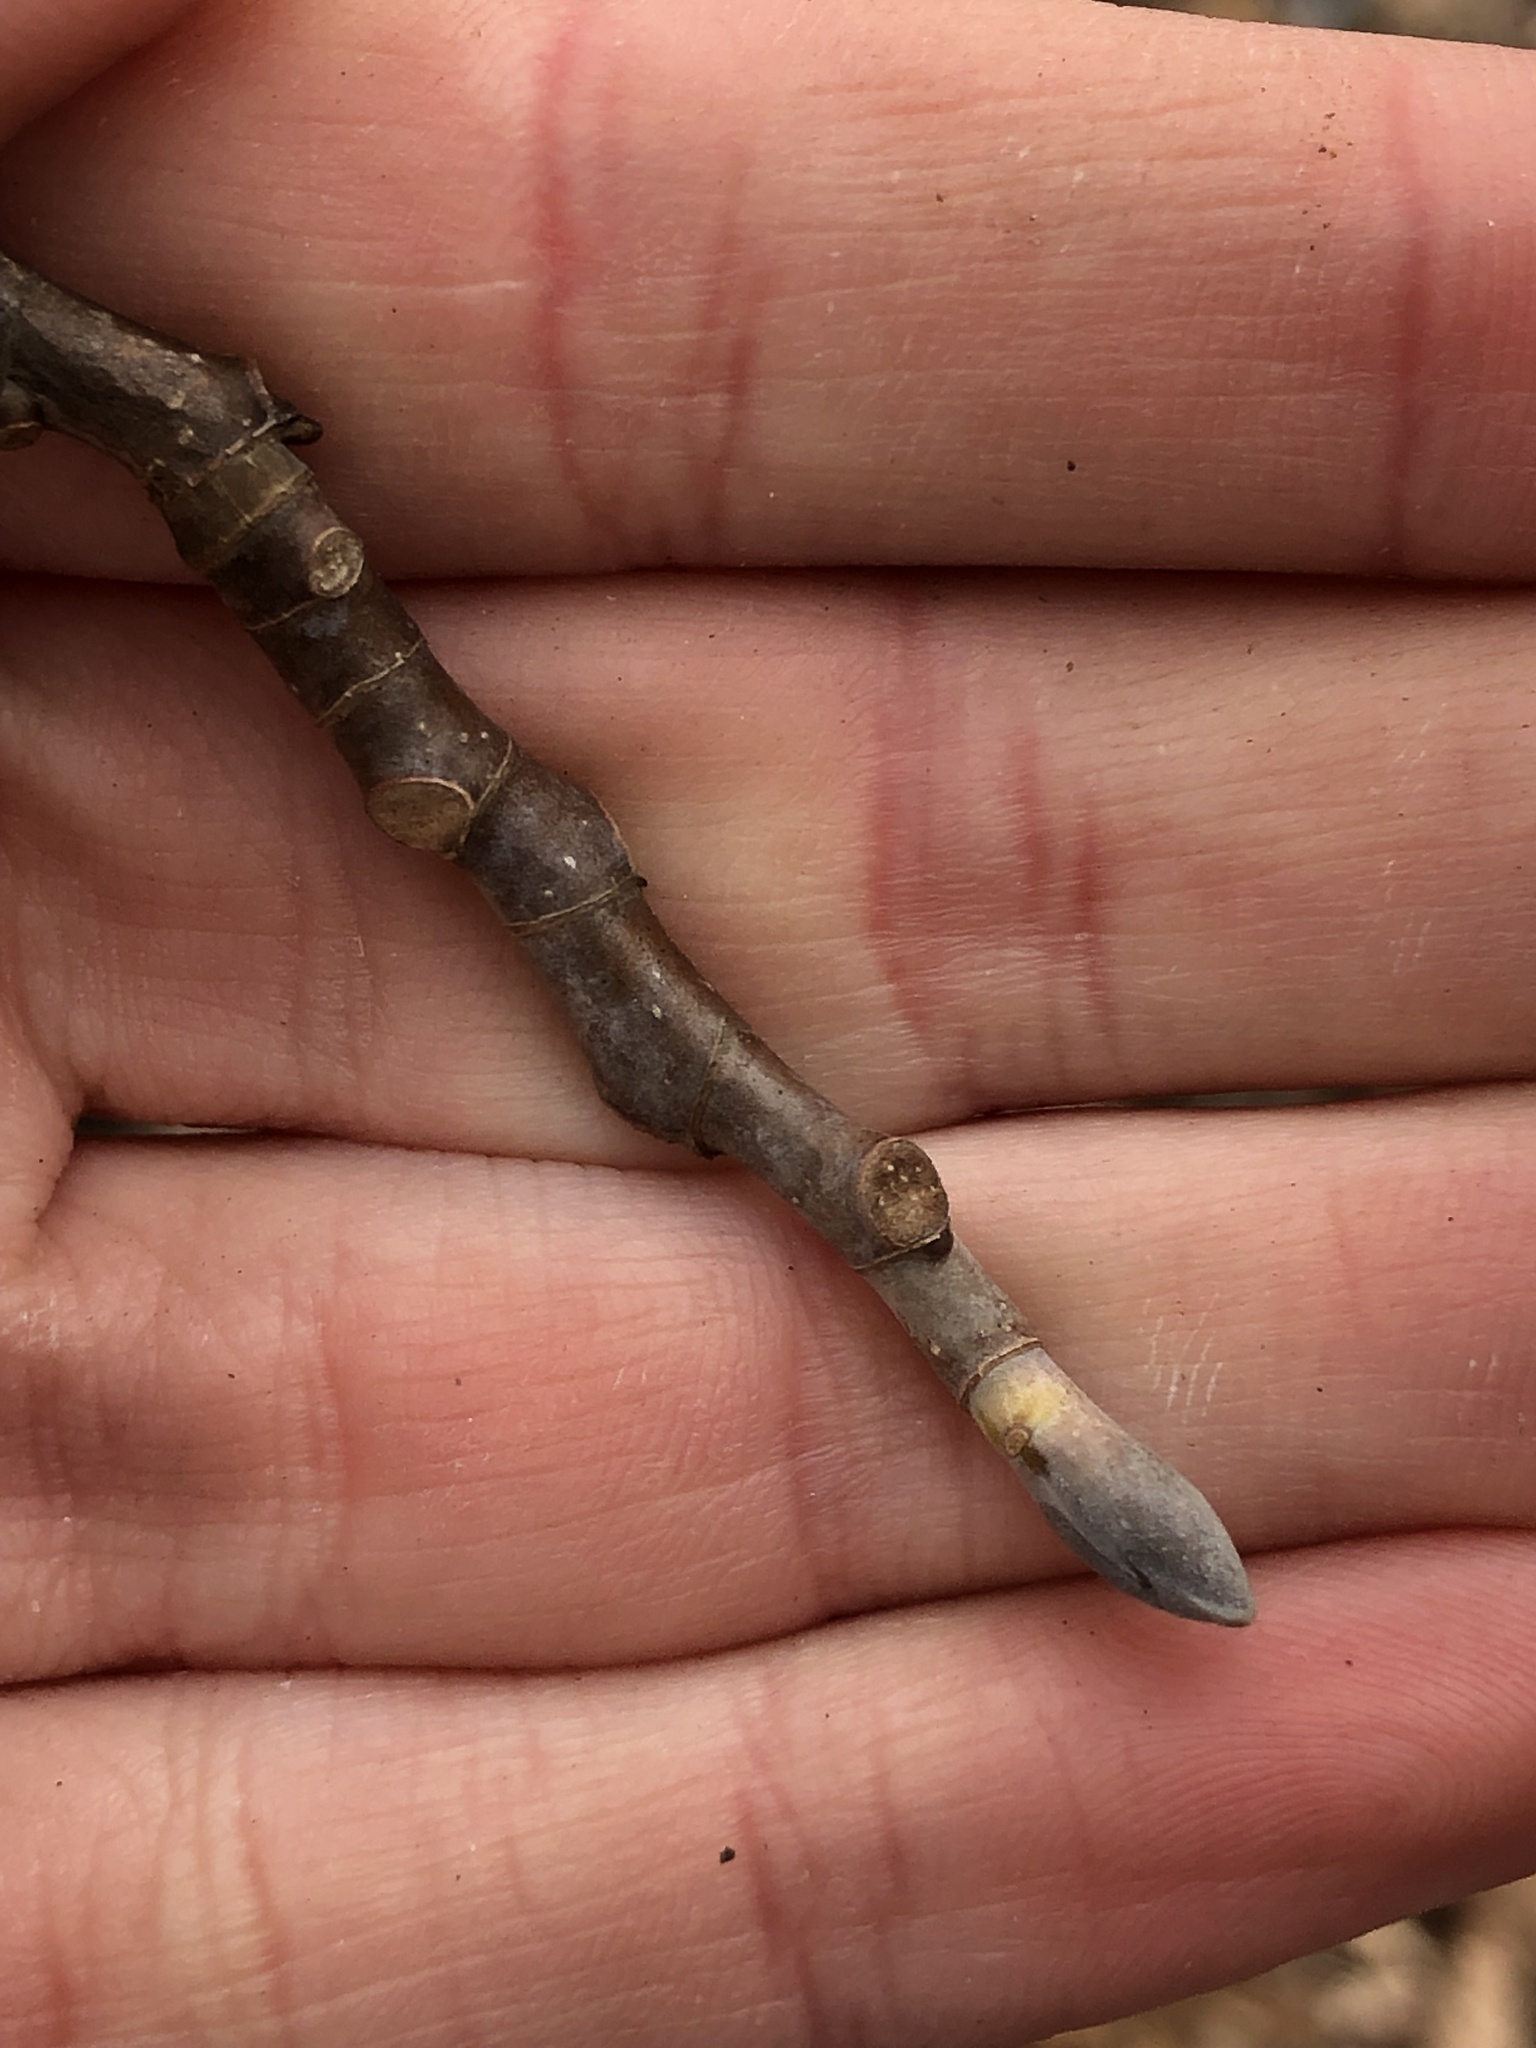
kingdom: Plantae
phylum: Tracheophyta
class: Magnoliopsida
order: Magnoliales
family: Magnoliaceae
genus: Liriodendron
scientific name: Liriodendron tulipifera
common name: Tulip tree
